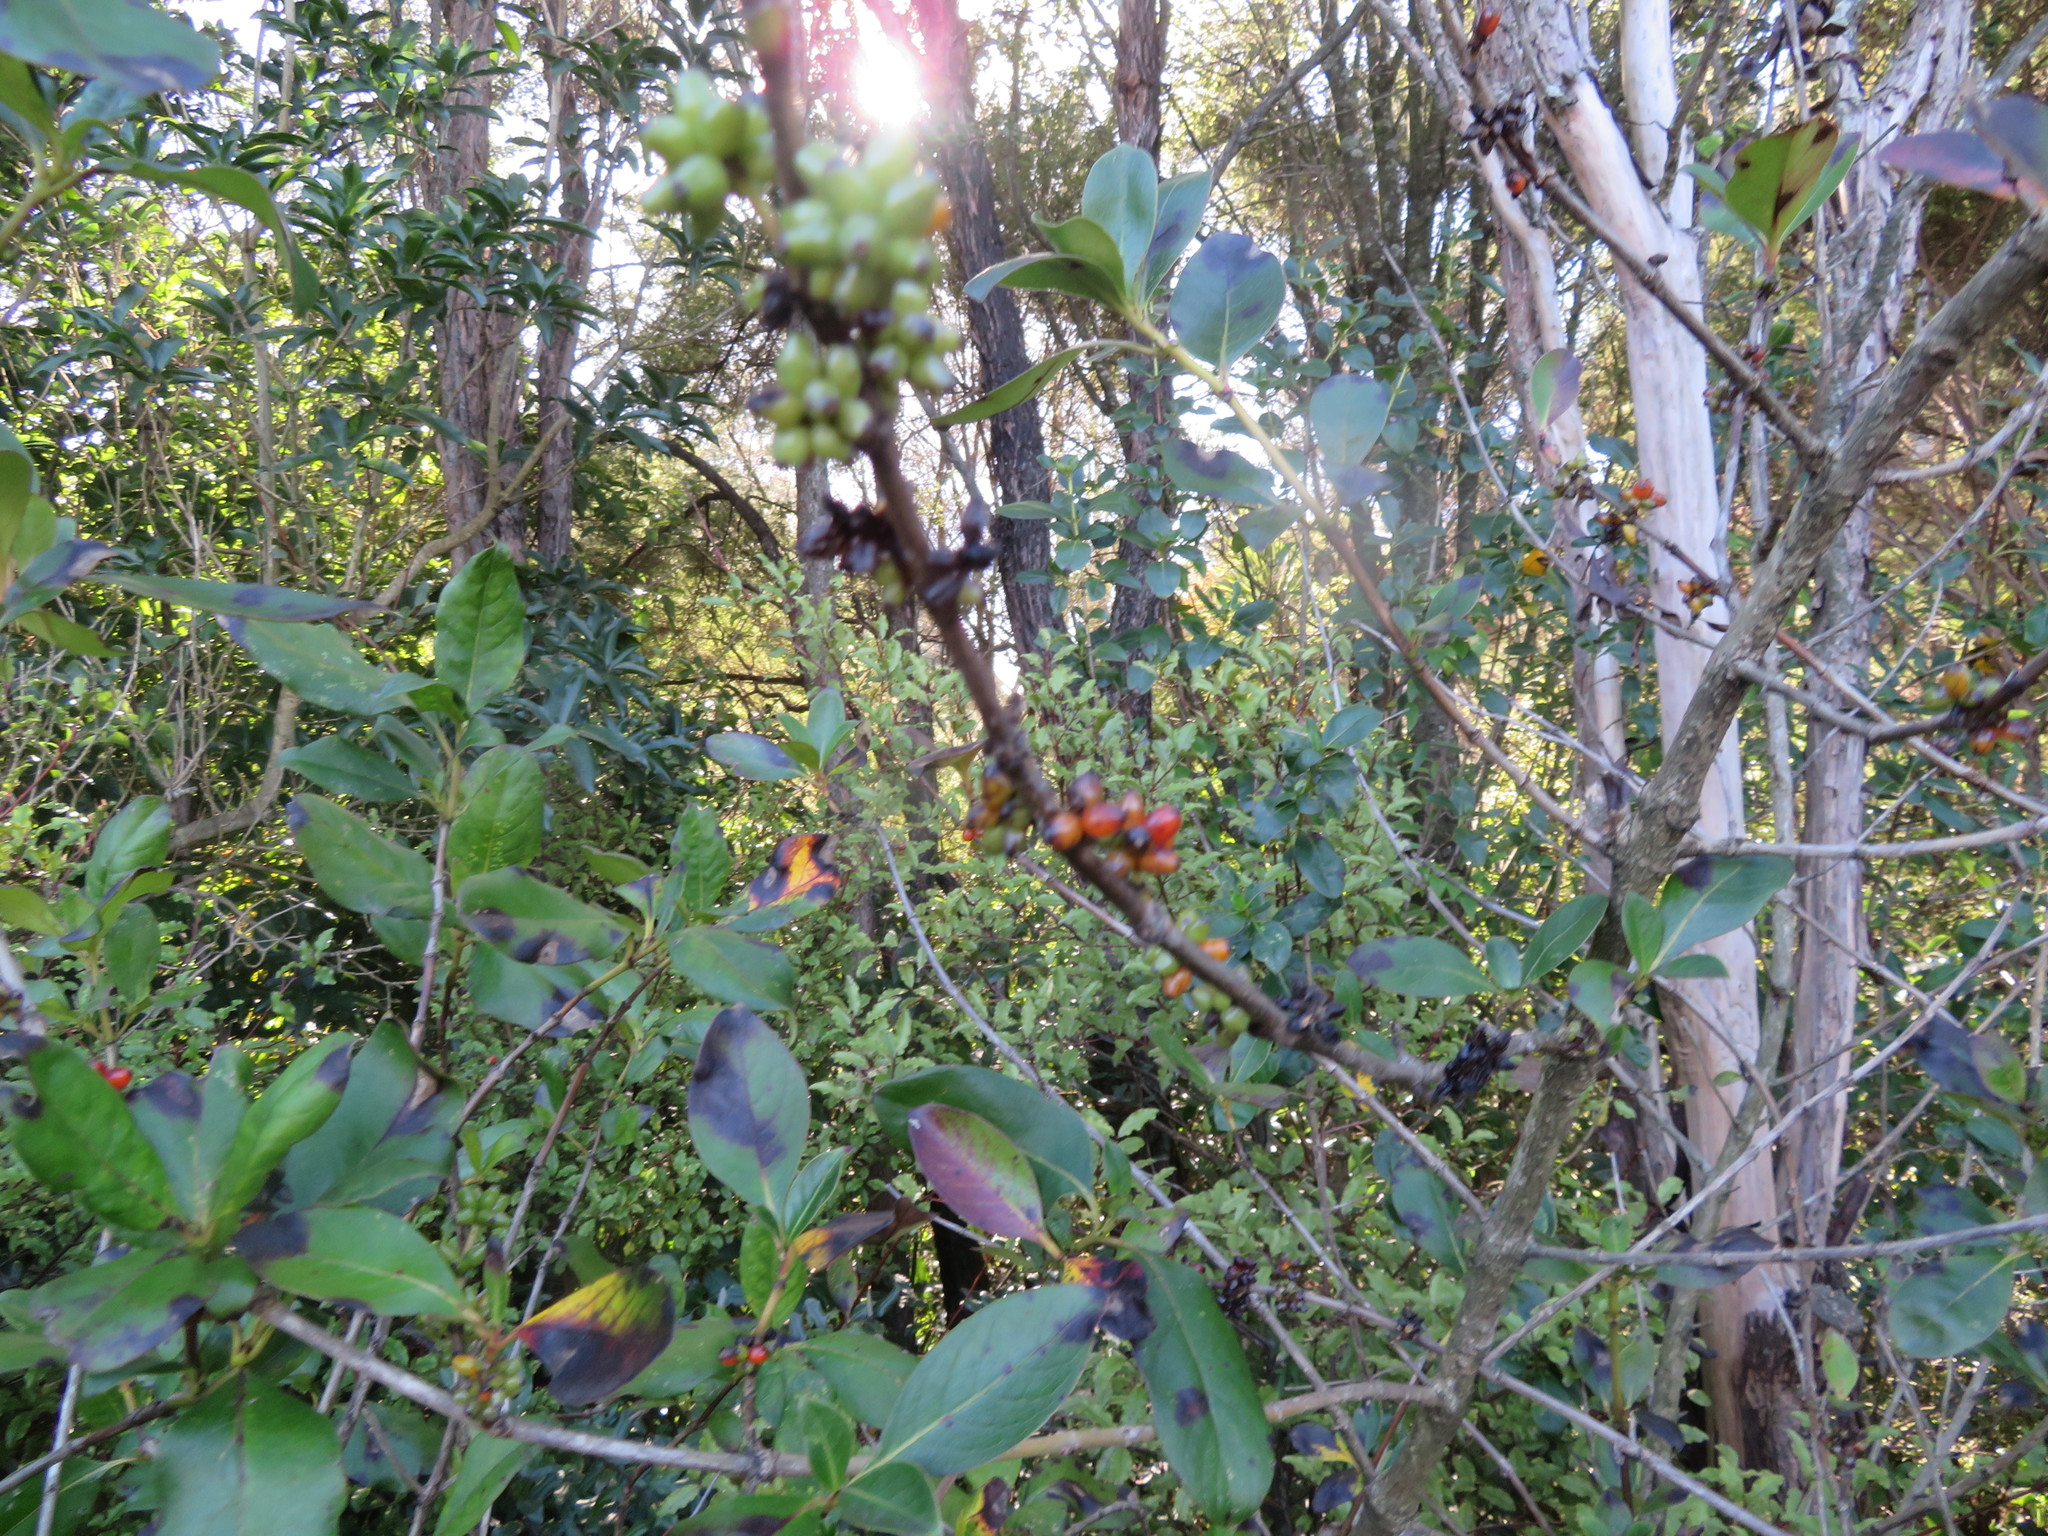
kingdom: Plantae
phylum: Tracheophyta
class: Magnoliopsida
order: Gentianales
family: Rubiaceae
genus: Coprosma
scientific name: Coprosma robusta
